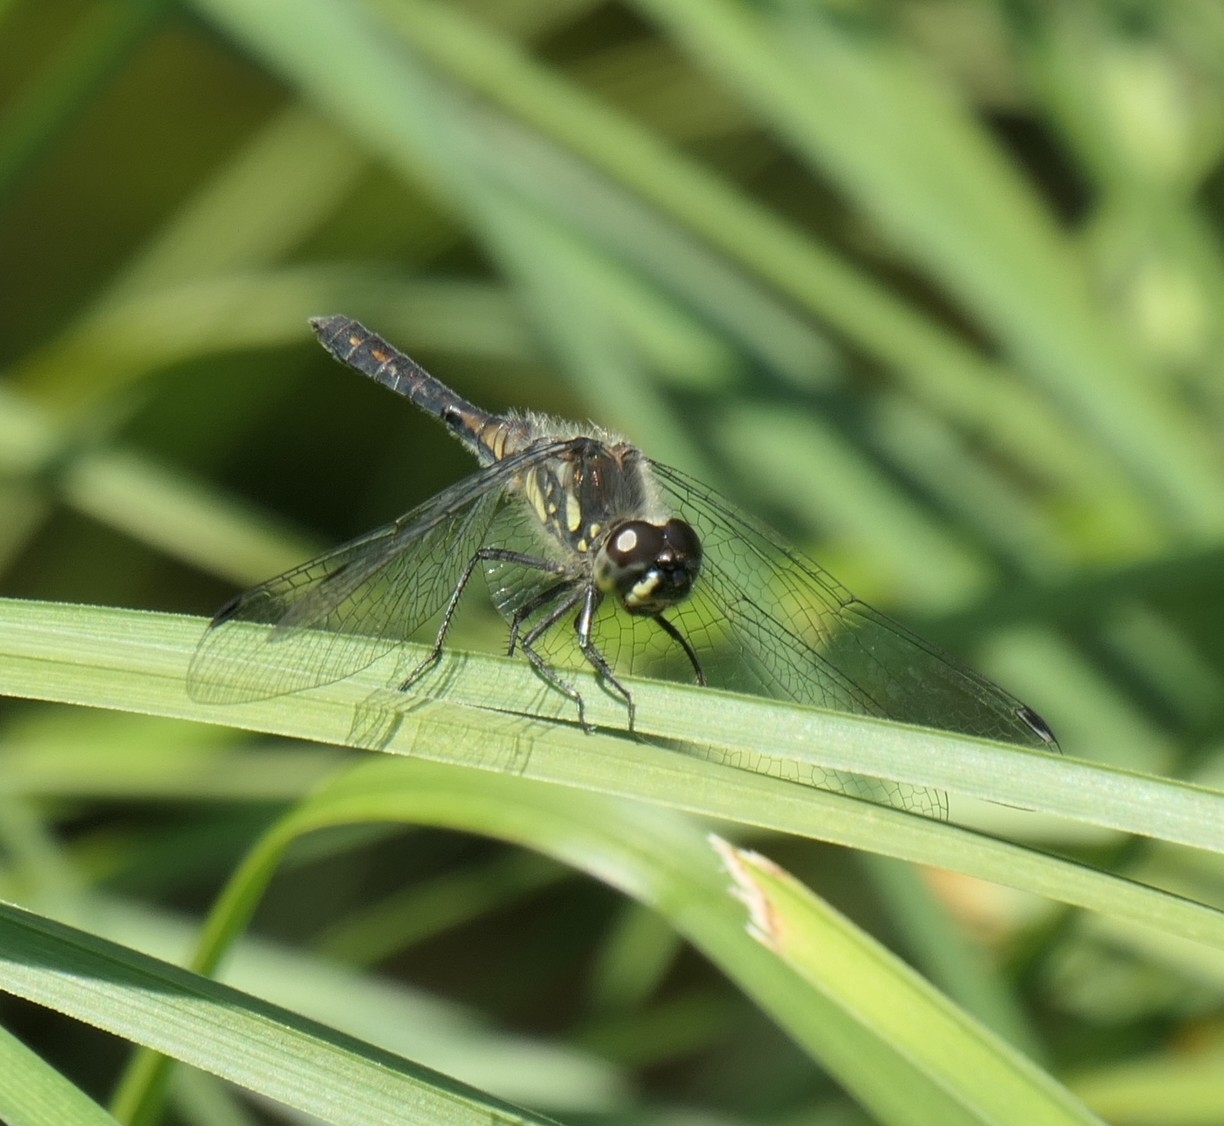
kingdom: Animalia
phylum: Arthropoda
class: Insecta
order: Odonata
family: Libellulidae
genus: Sympetrum
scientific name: Sympetrum danae
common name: Black darter
